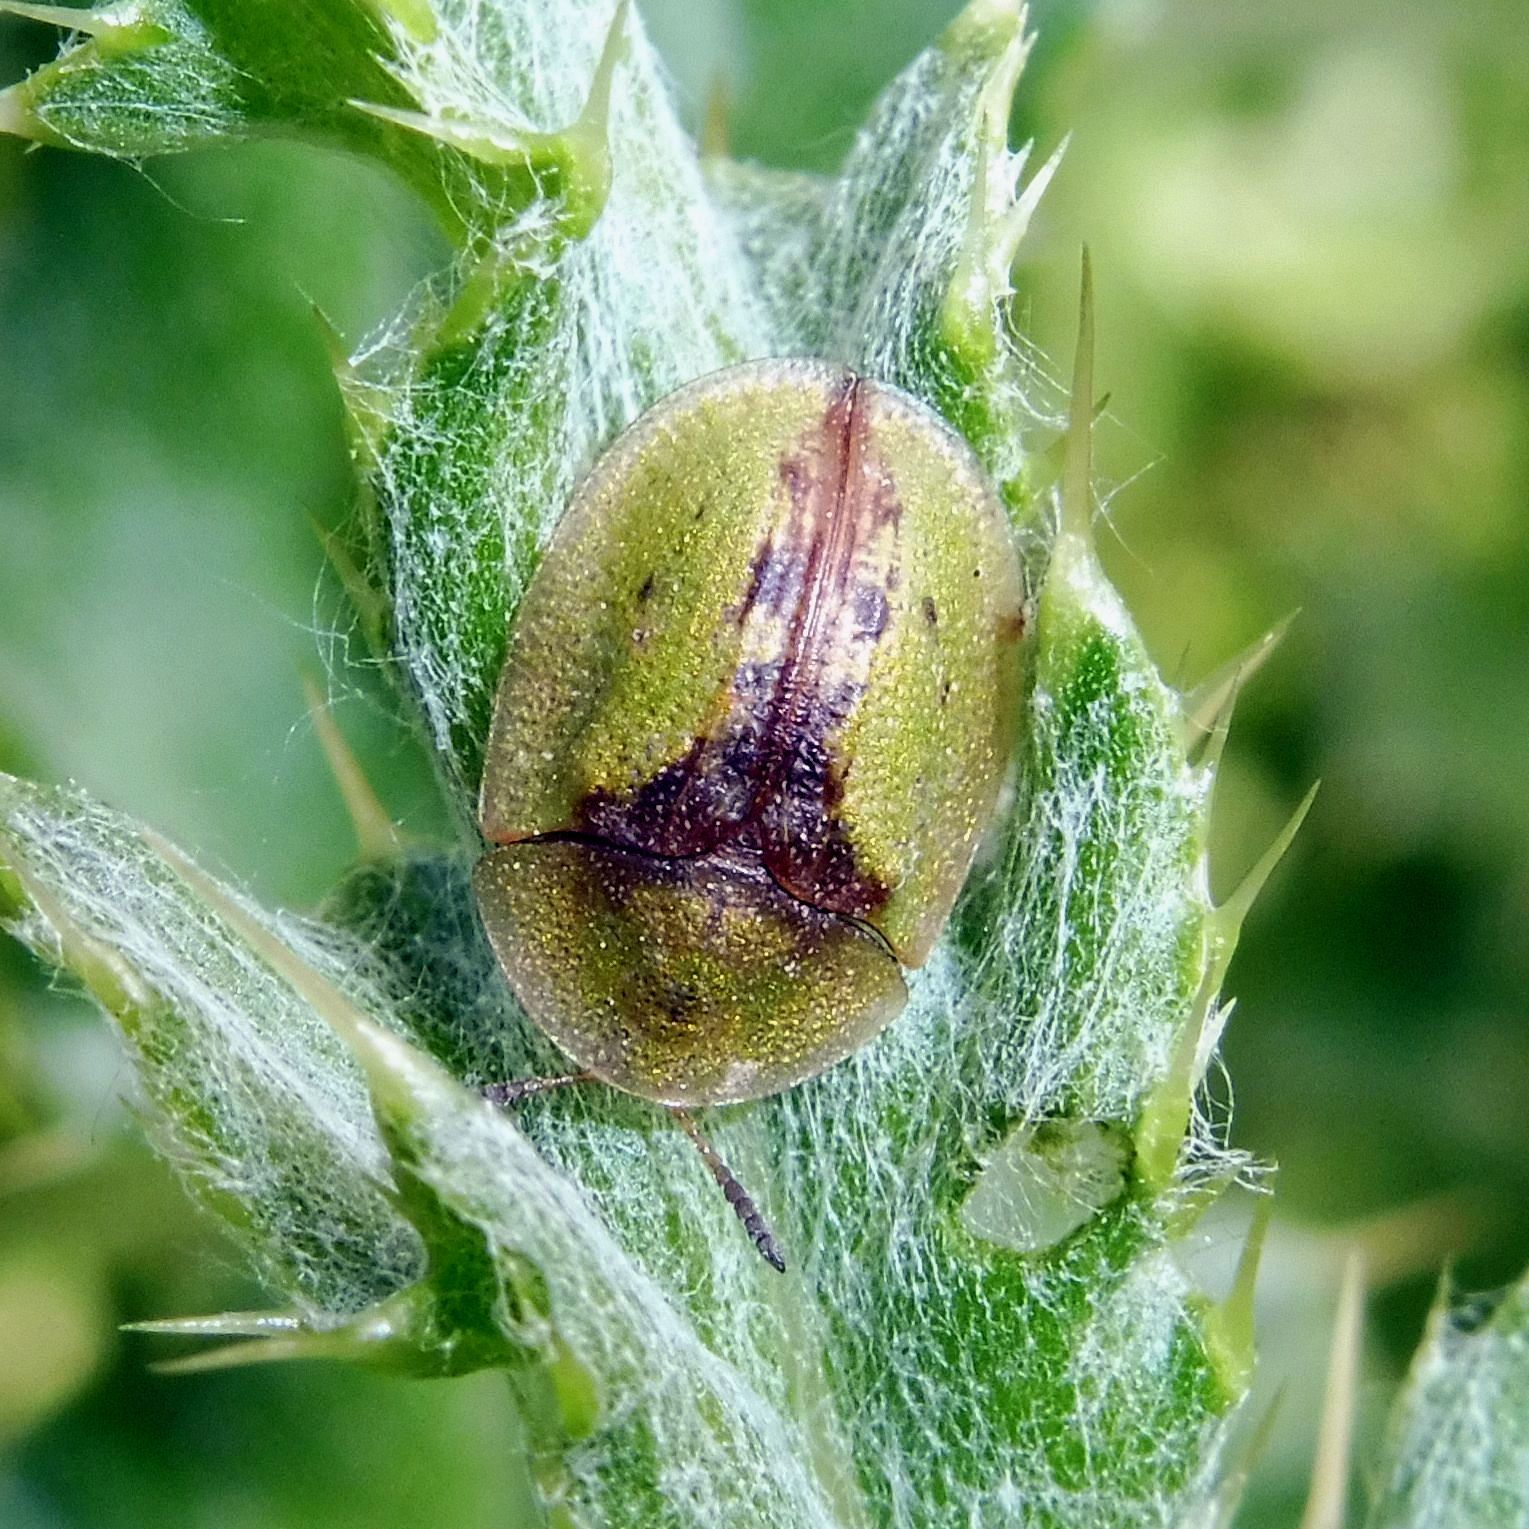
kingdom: Animalia
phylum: Arthropoda
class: Insecta
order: Coleoptera
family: Chrysomelidae
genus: Cassida
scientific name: Cassida vibex
